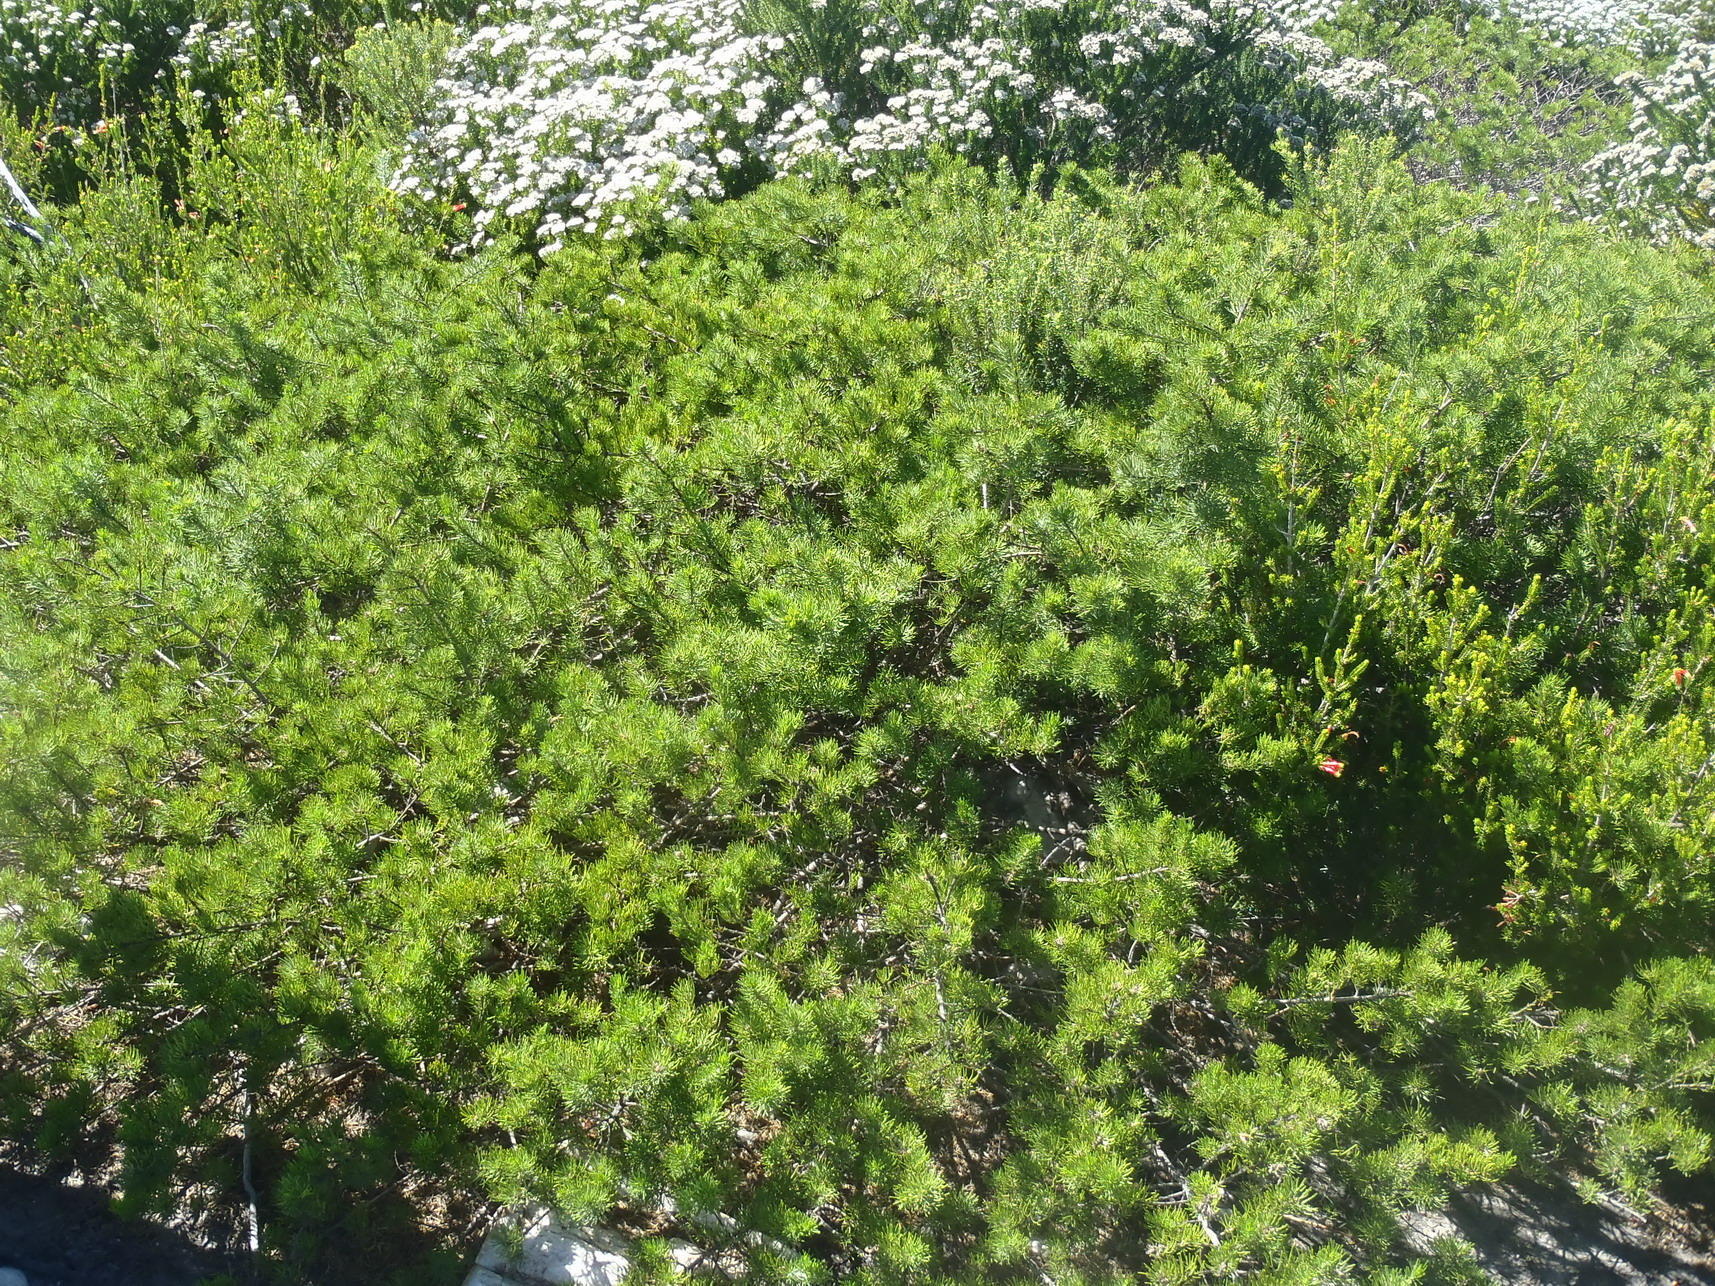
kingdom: Plantae
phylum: Tracheophyta
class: Magnoliopsida
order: Fabales
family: Fabaceae
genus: Psoralea
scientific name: Psoralea vanberkelae
